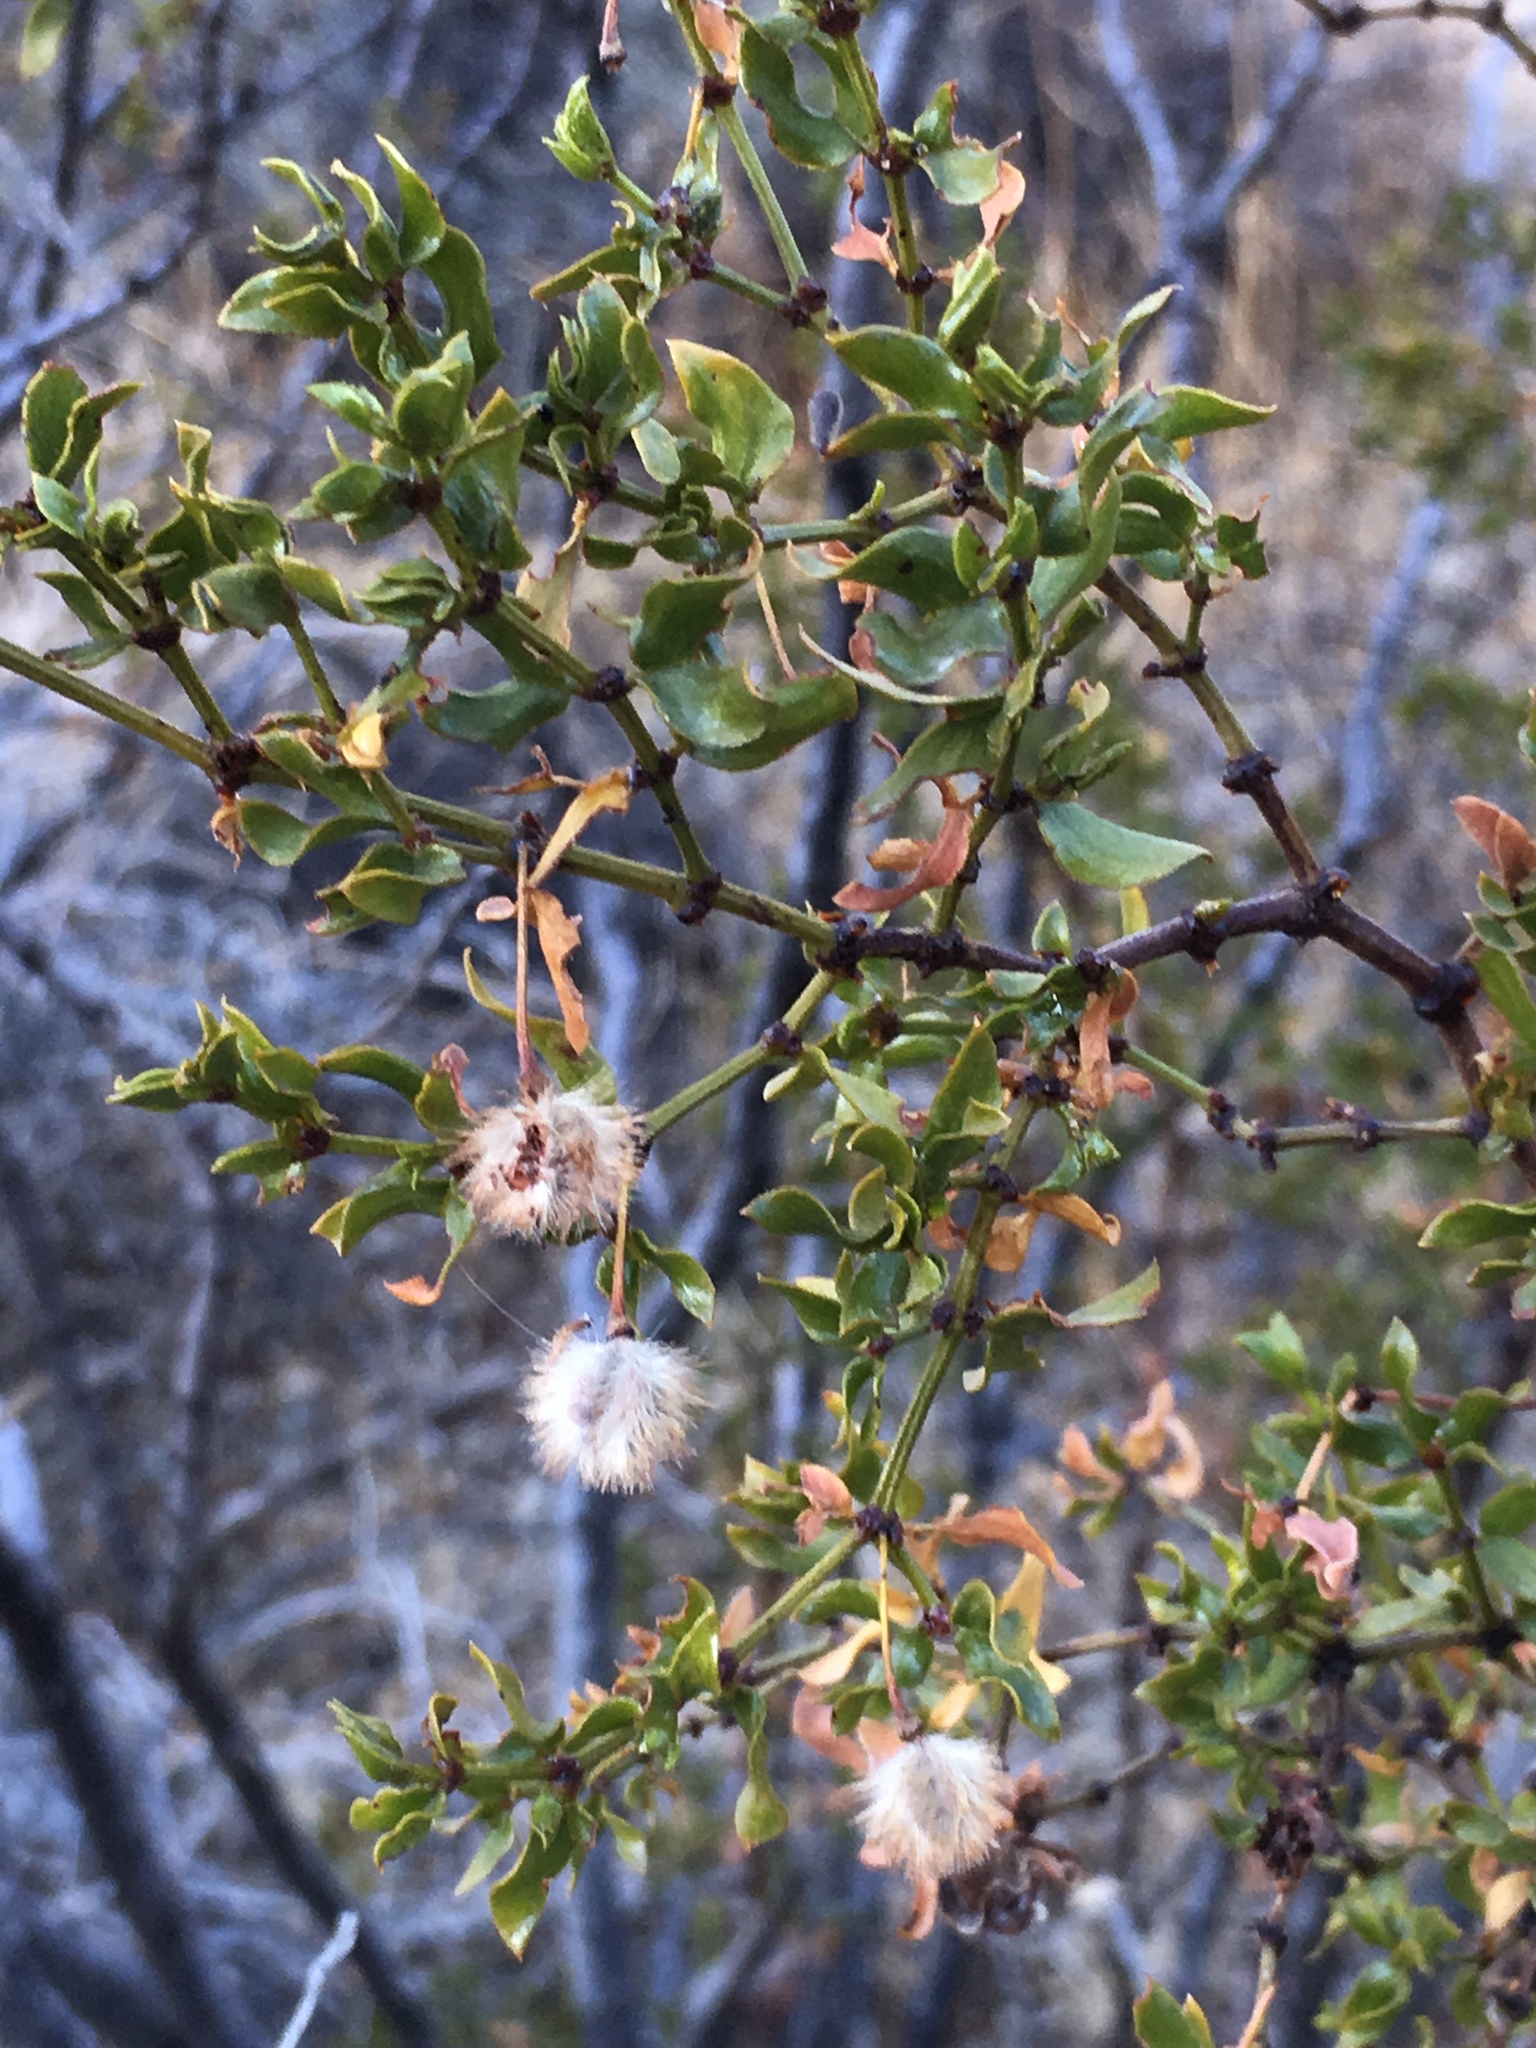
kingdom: Plantae
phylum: Tracheophyta
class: Magnoliopsida
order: Zygophyllales
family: Zygophyllaceae
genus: Larrea
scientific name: Larrea tridentata
